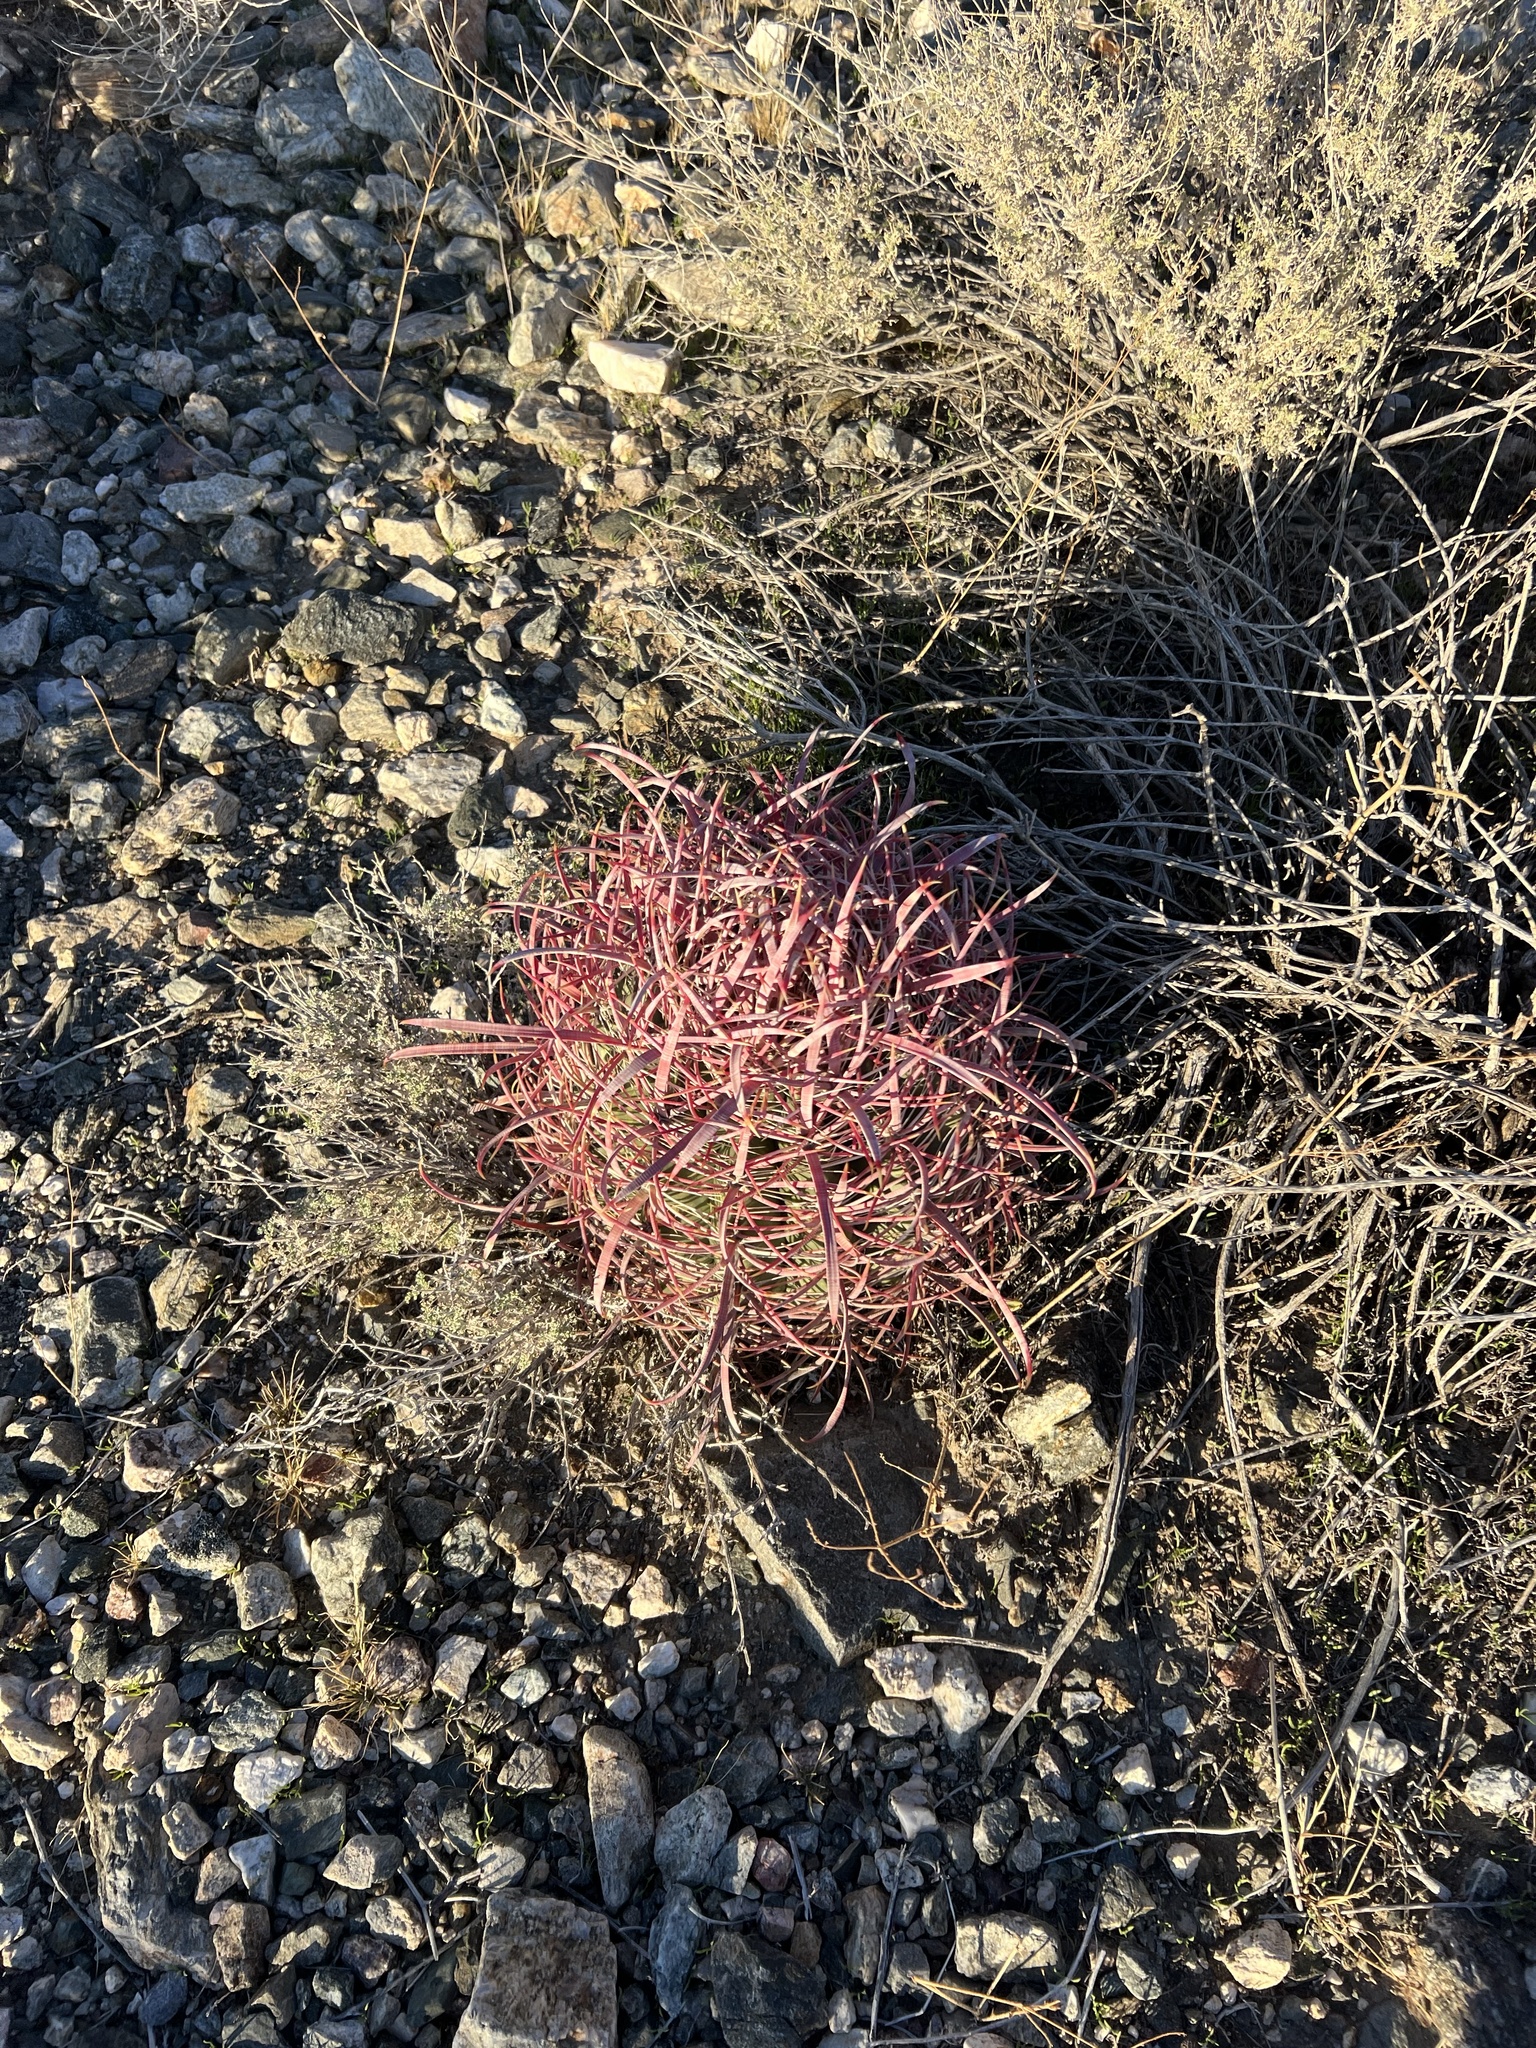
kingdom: Plantae
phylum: Tracheophyta
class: Magnoliopsida
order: Caryophyllales
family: Cactaceae
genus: Ferocactus
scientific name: Ferocactus cylindraceus
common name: California barrel cactus
